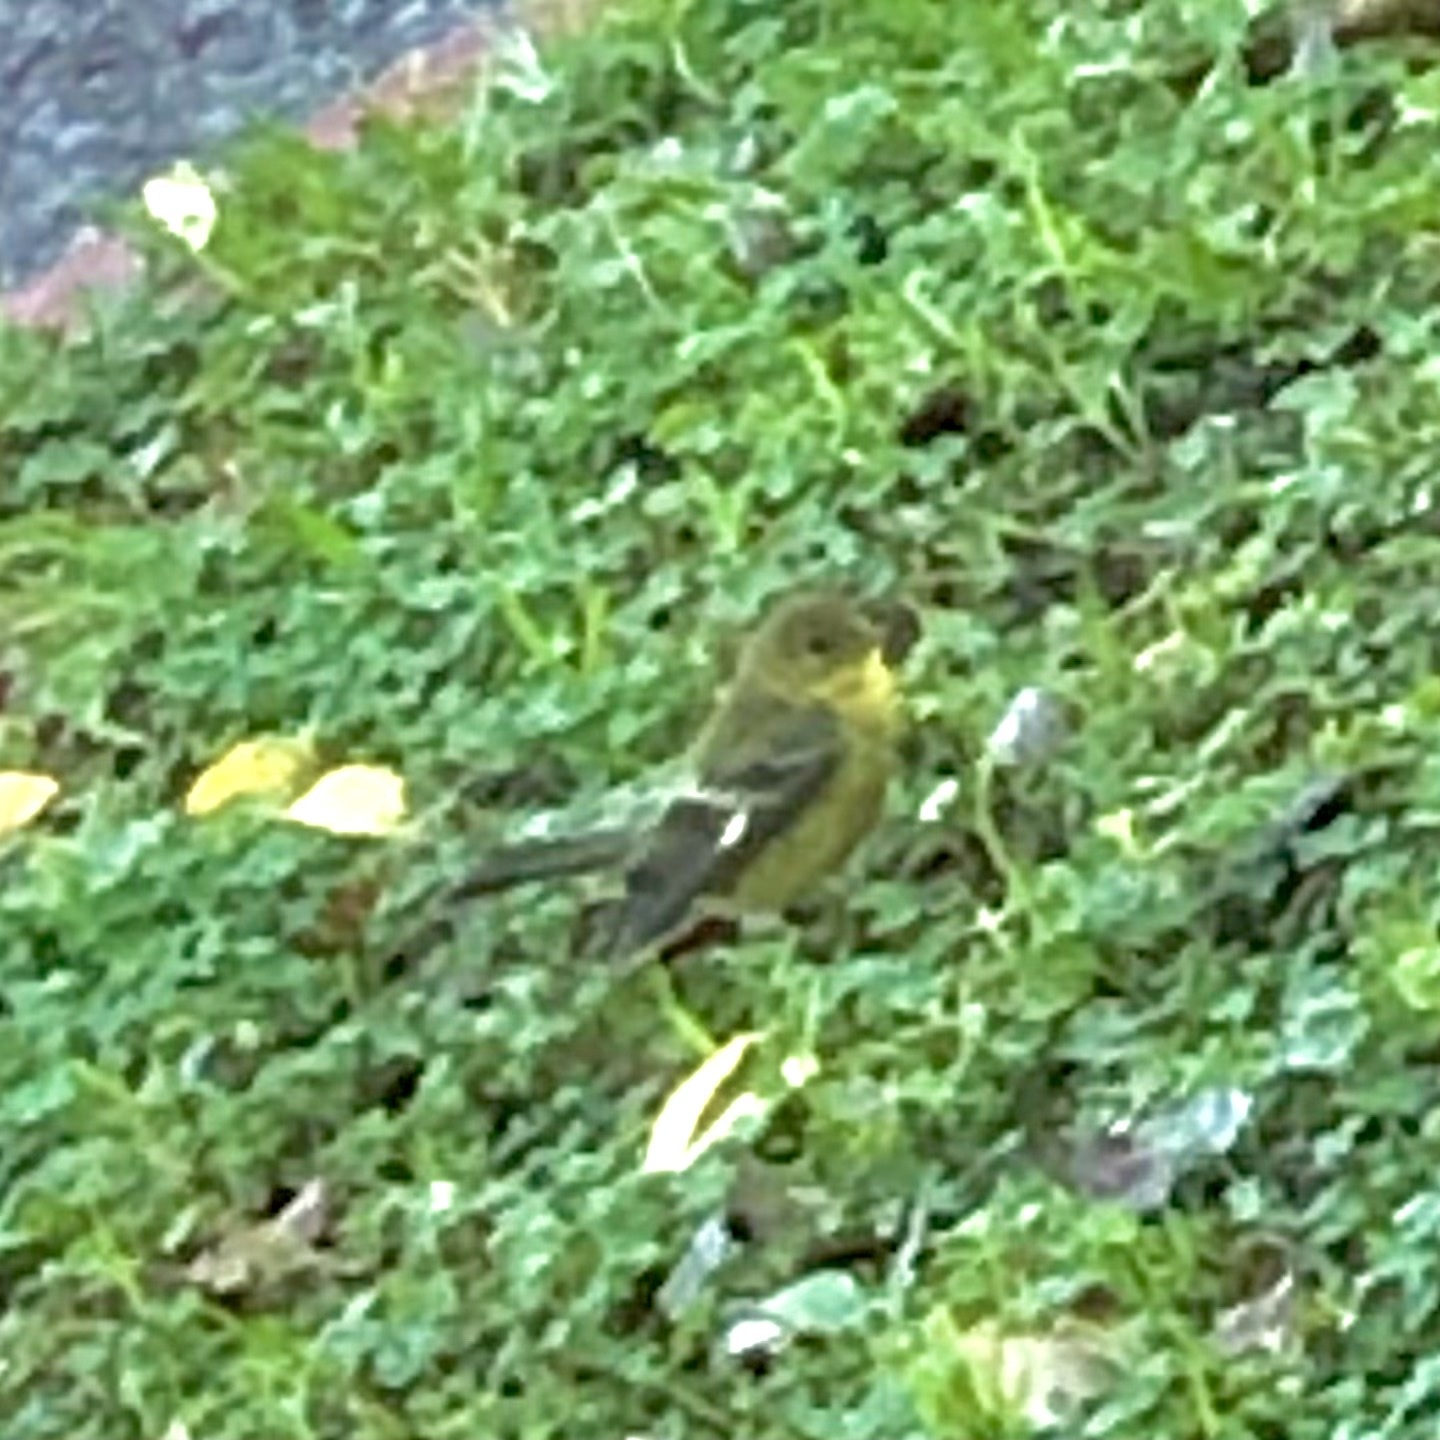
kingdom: Animalia
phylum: Chordata
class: Aves
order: Passeriformes
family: Fringillidae
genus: Spinus
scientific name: Spinus psaltria
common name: Lesser goldfinch
